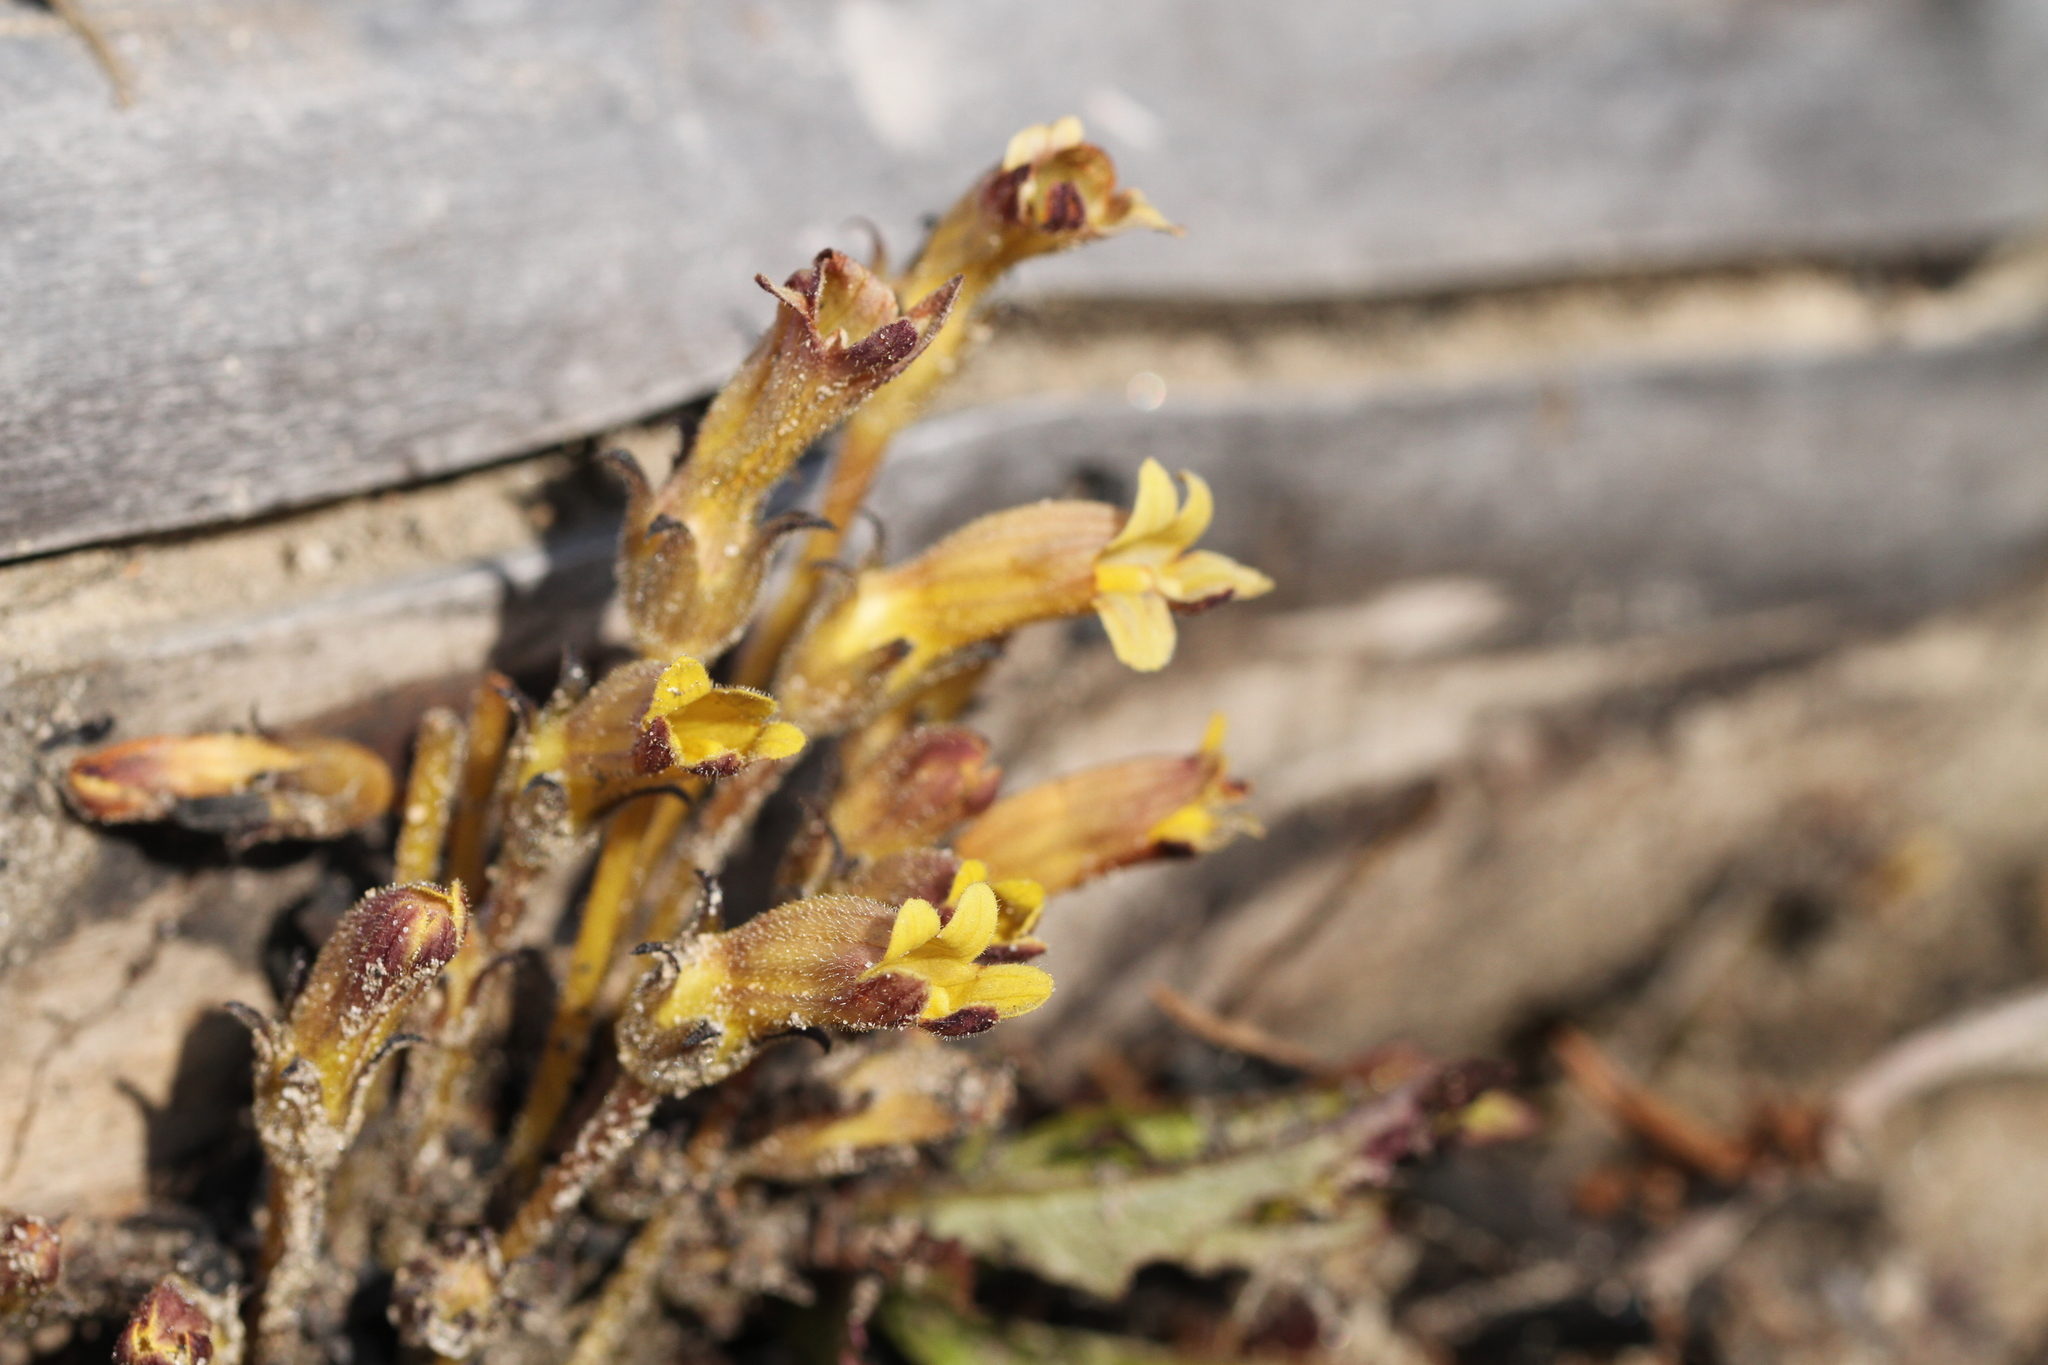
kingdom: Plantae
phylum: Tracheophyta
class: Magnoliopsida
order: Lamiales
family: Orobanchaceae
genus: Aphyllon
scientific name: Aphyllon franciscanum
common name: San francisco broomrape
